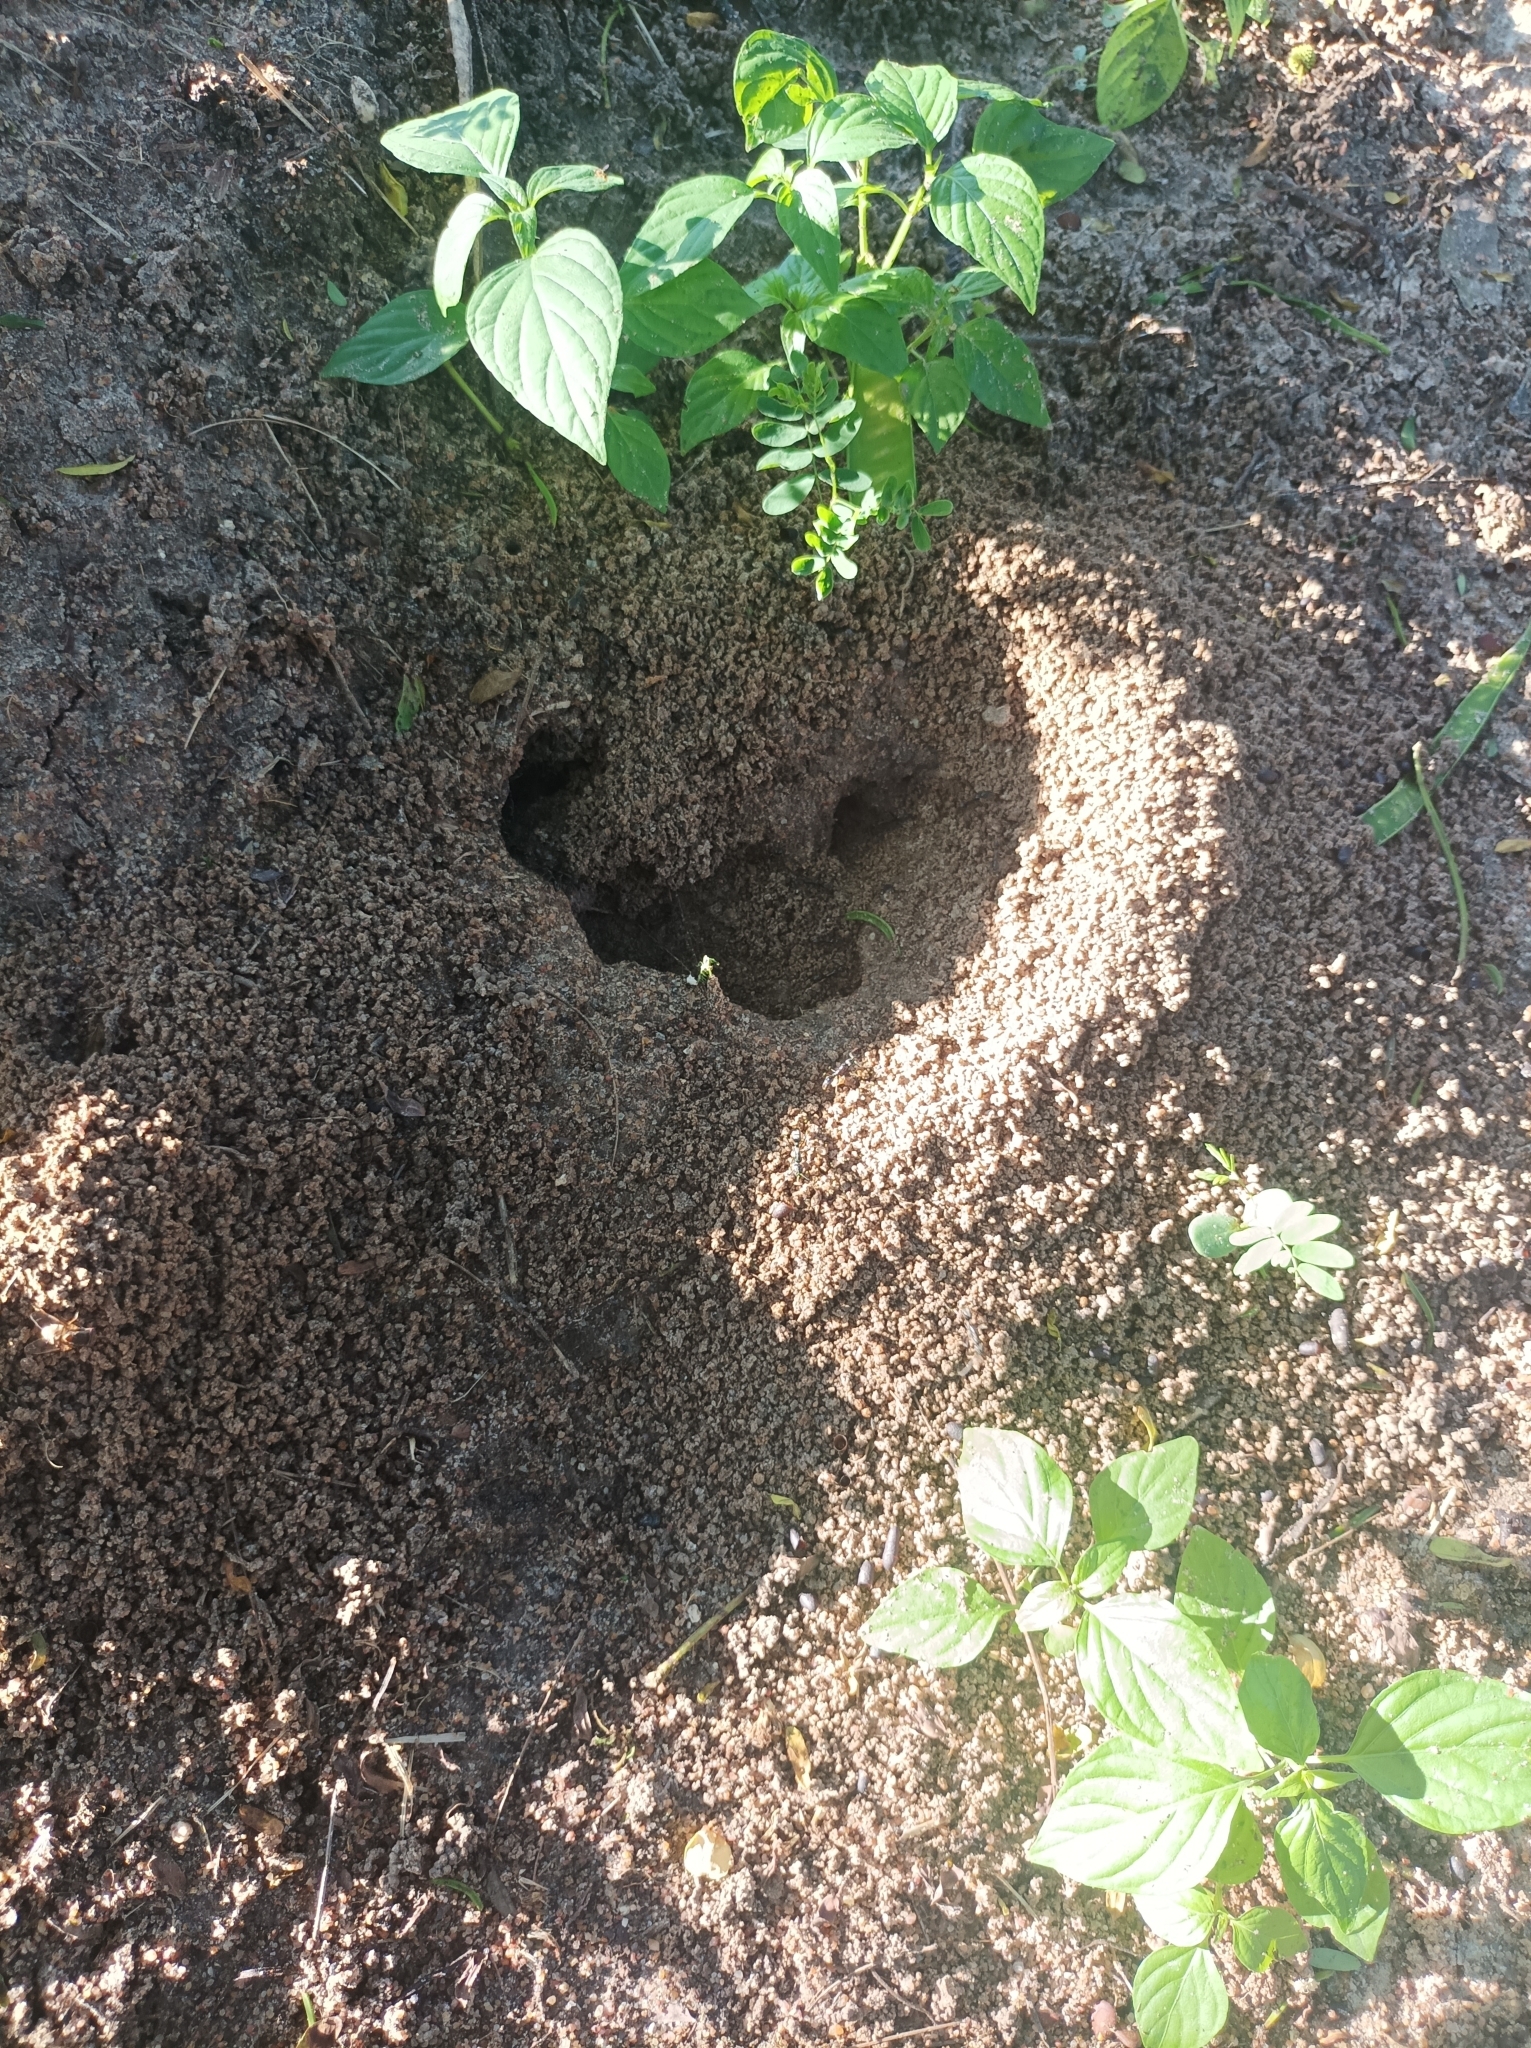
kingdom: Animalia
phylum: Arthropoda
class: Insecta
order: Hymenoptera
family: Formicidae
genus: Megaponera
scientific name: Megaponera analis
